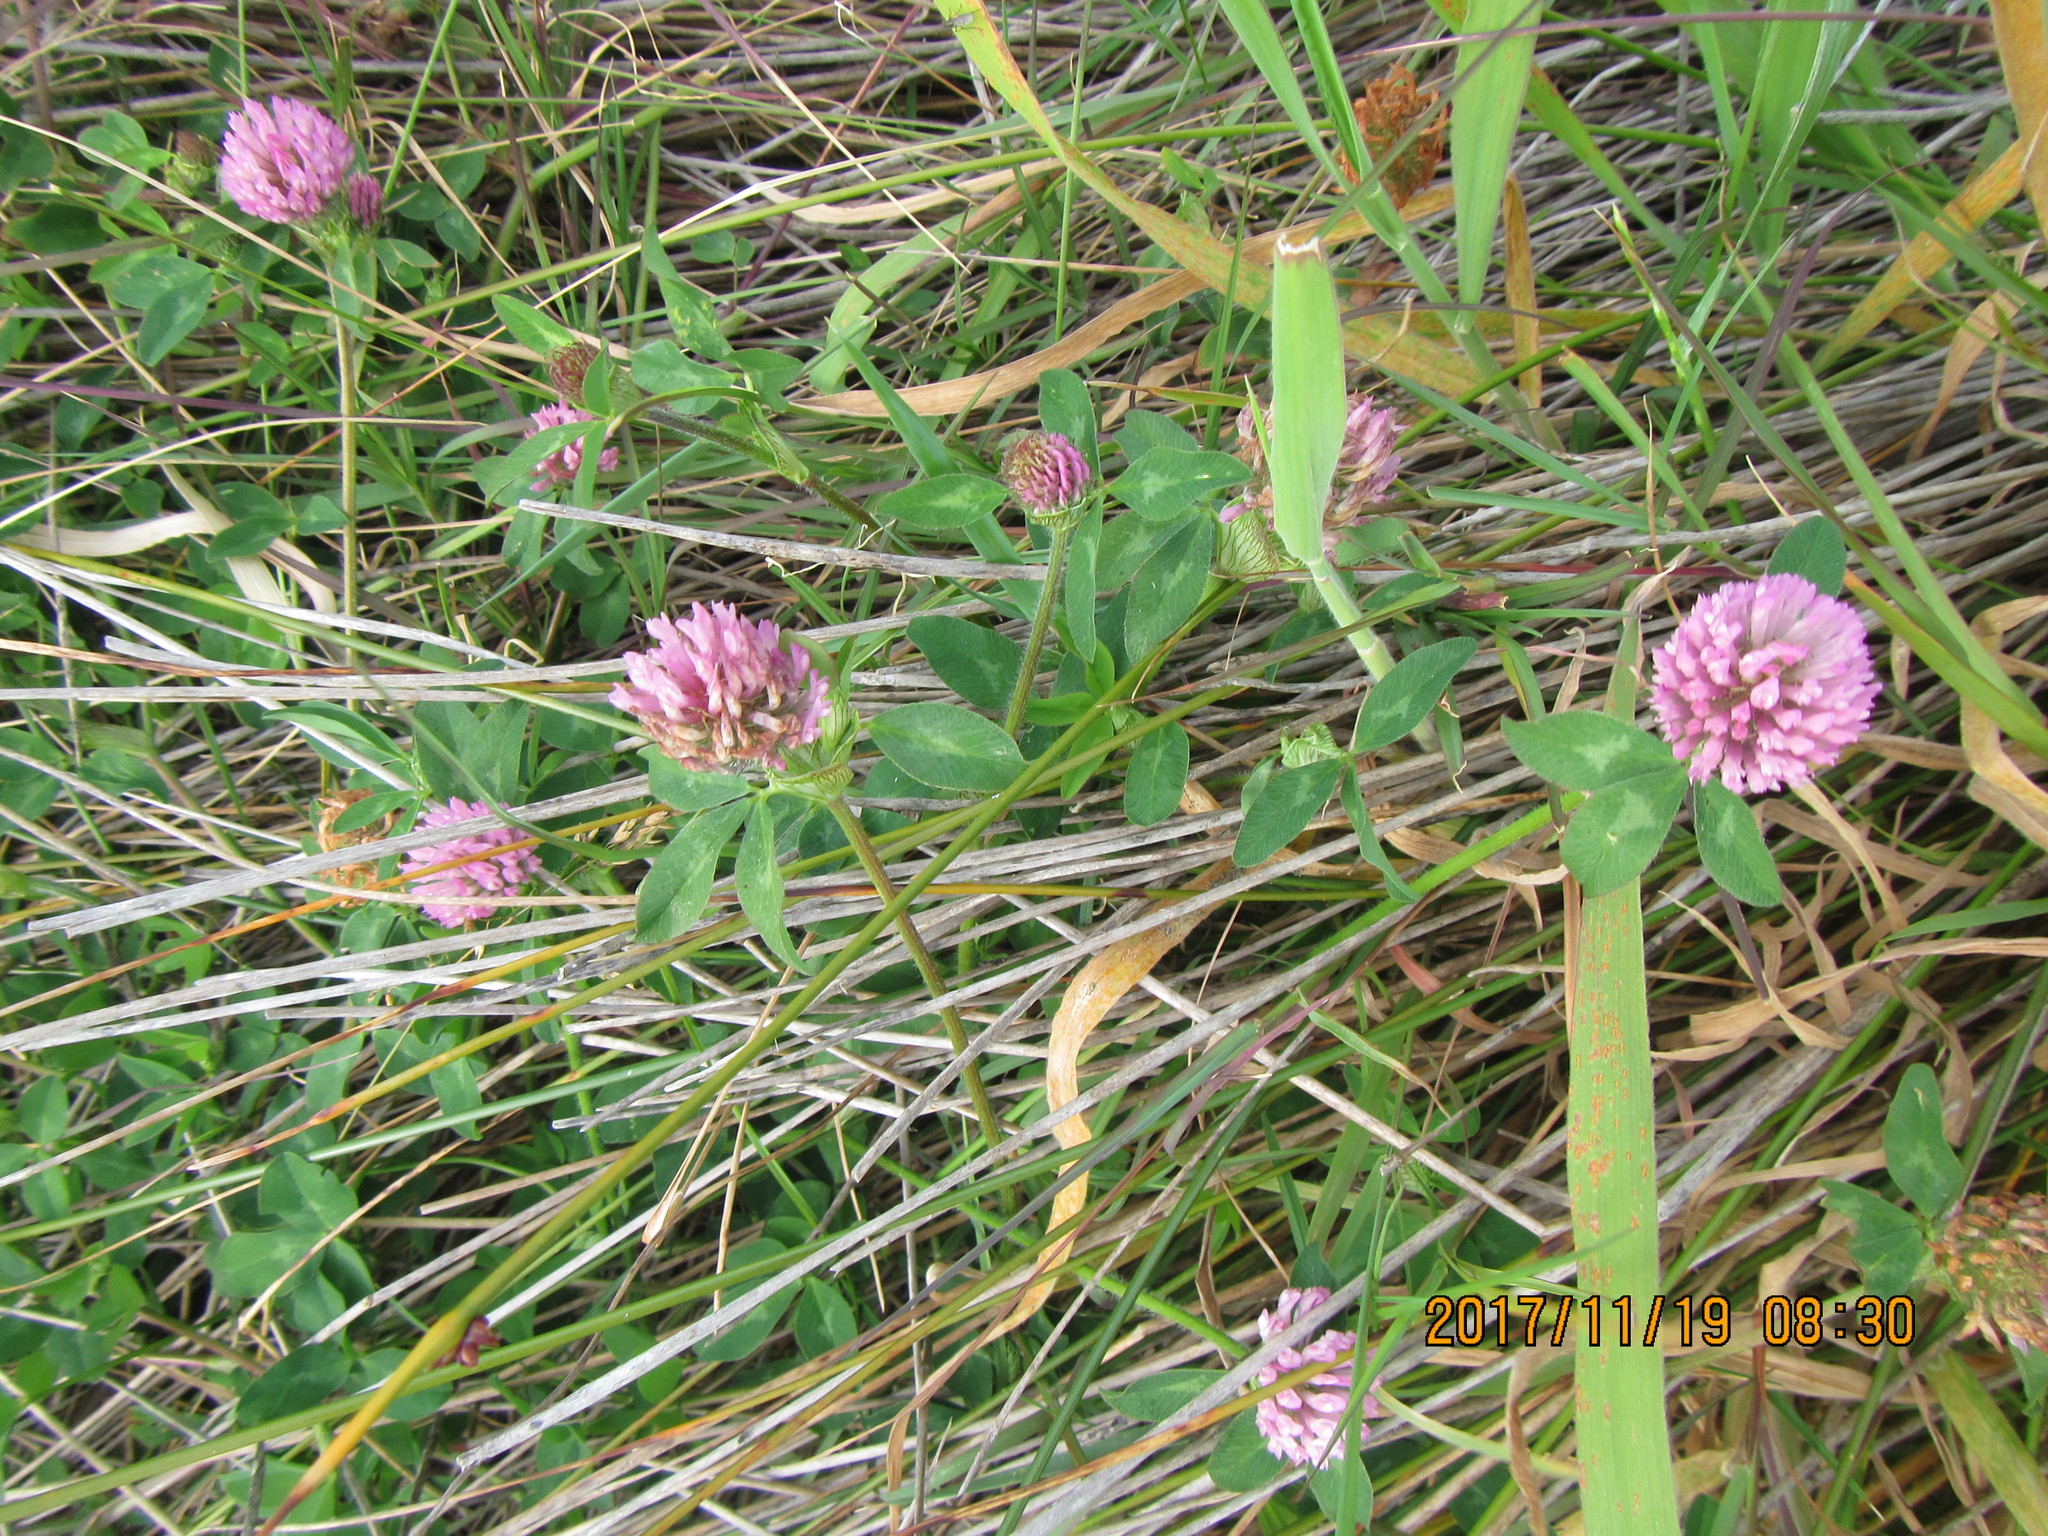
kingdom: Plantae
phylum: Tracheophyta
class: Magnoliopsida
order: Fabales
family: Fabaceae
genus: Trifolium
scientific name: Trifolium pratense
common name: Red clover
